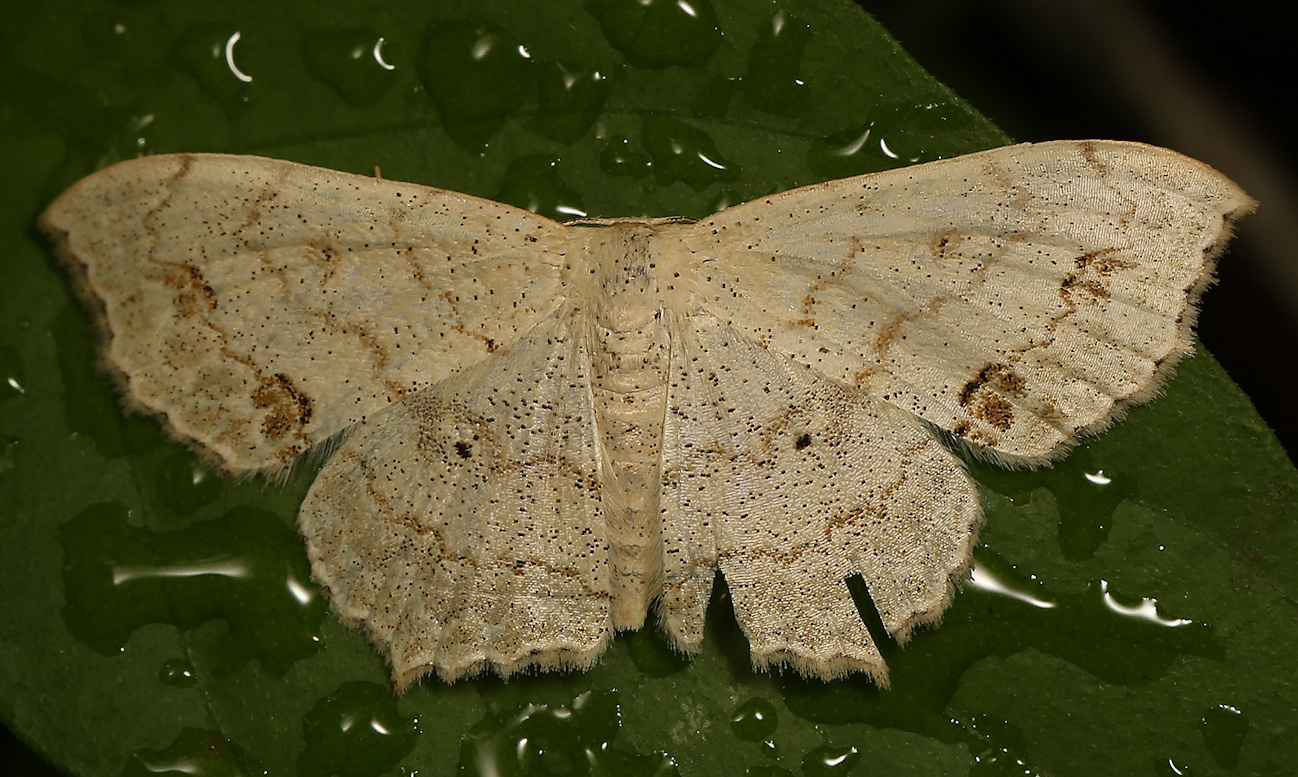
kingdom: Animalia
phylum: Arthropoda
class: Insecta
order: Lepidoptera
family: Geometridae
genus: Scopula
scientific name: Scopula fimbrilineata
